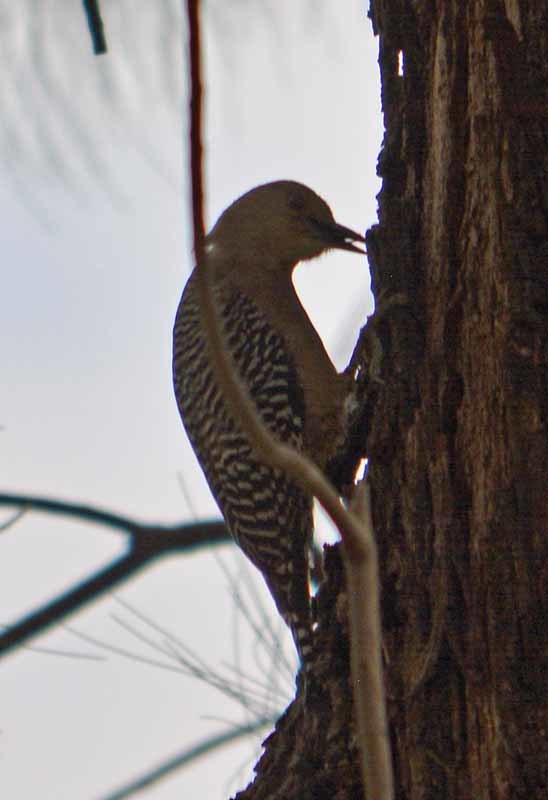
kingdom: Animalia
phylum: Chordata
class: Aves
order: Piciformes
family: Picidae
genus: Melanerpes
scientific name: Melanerpes uropygialis
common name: Gila woodpecker
